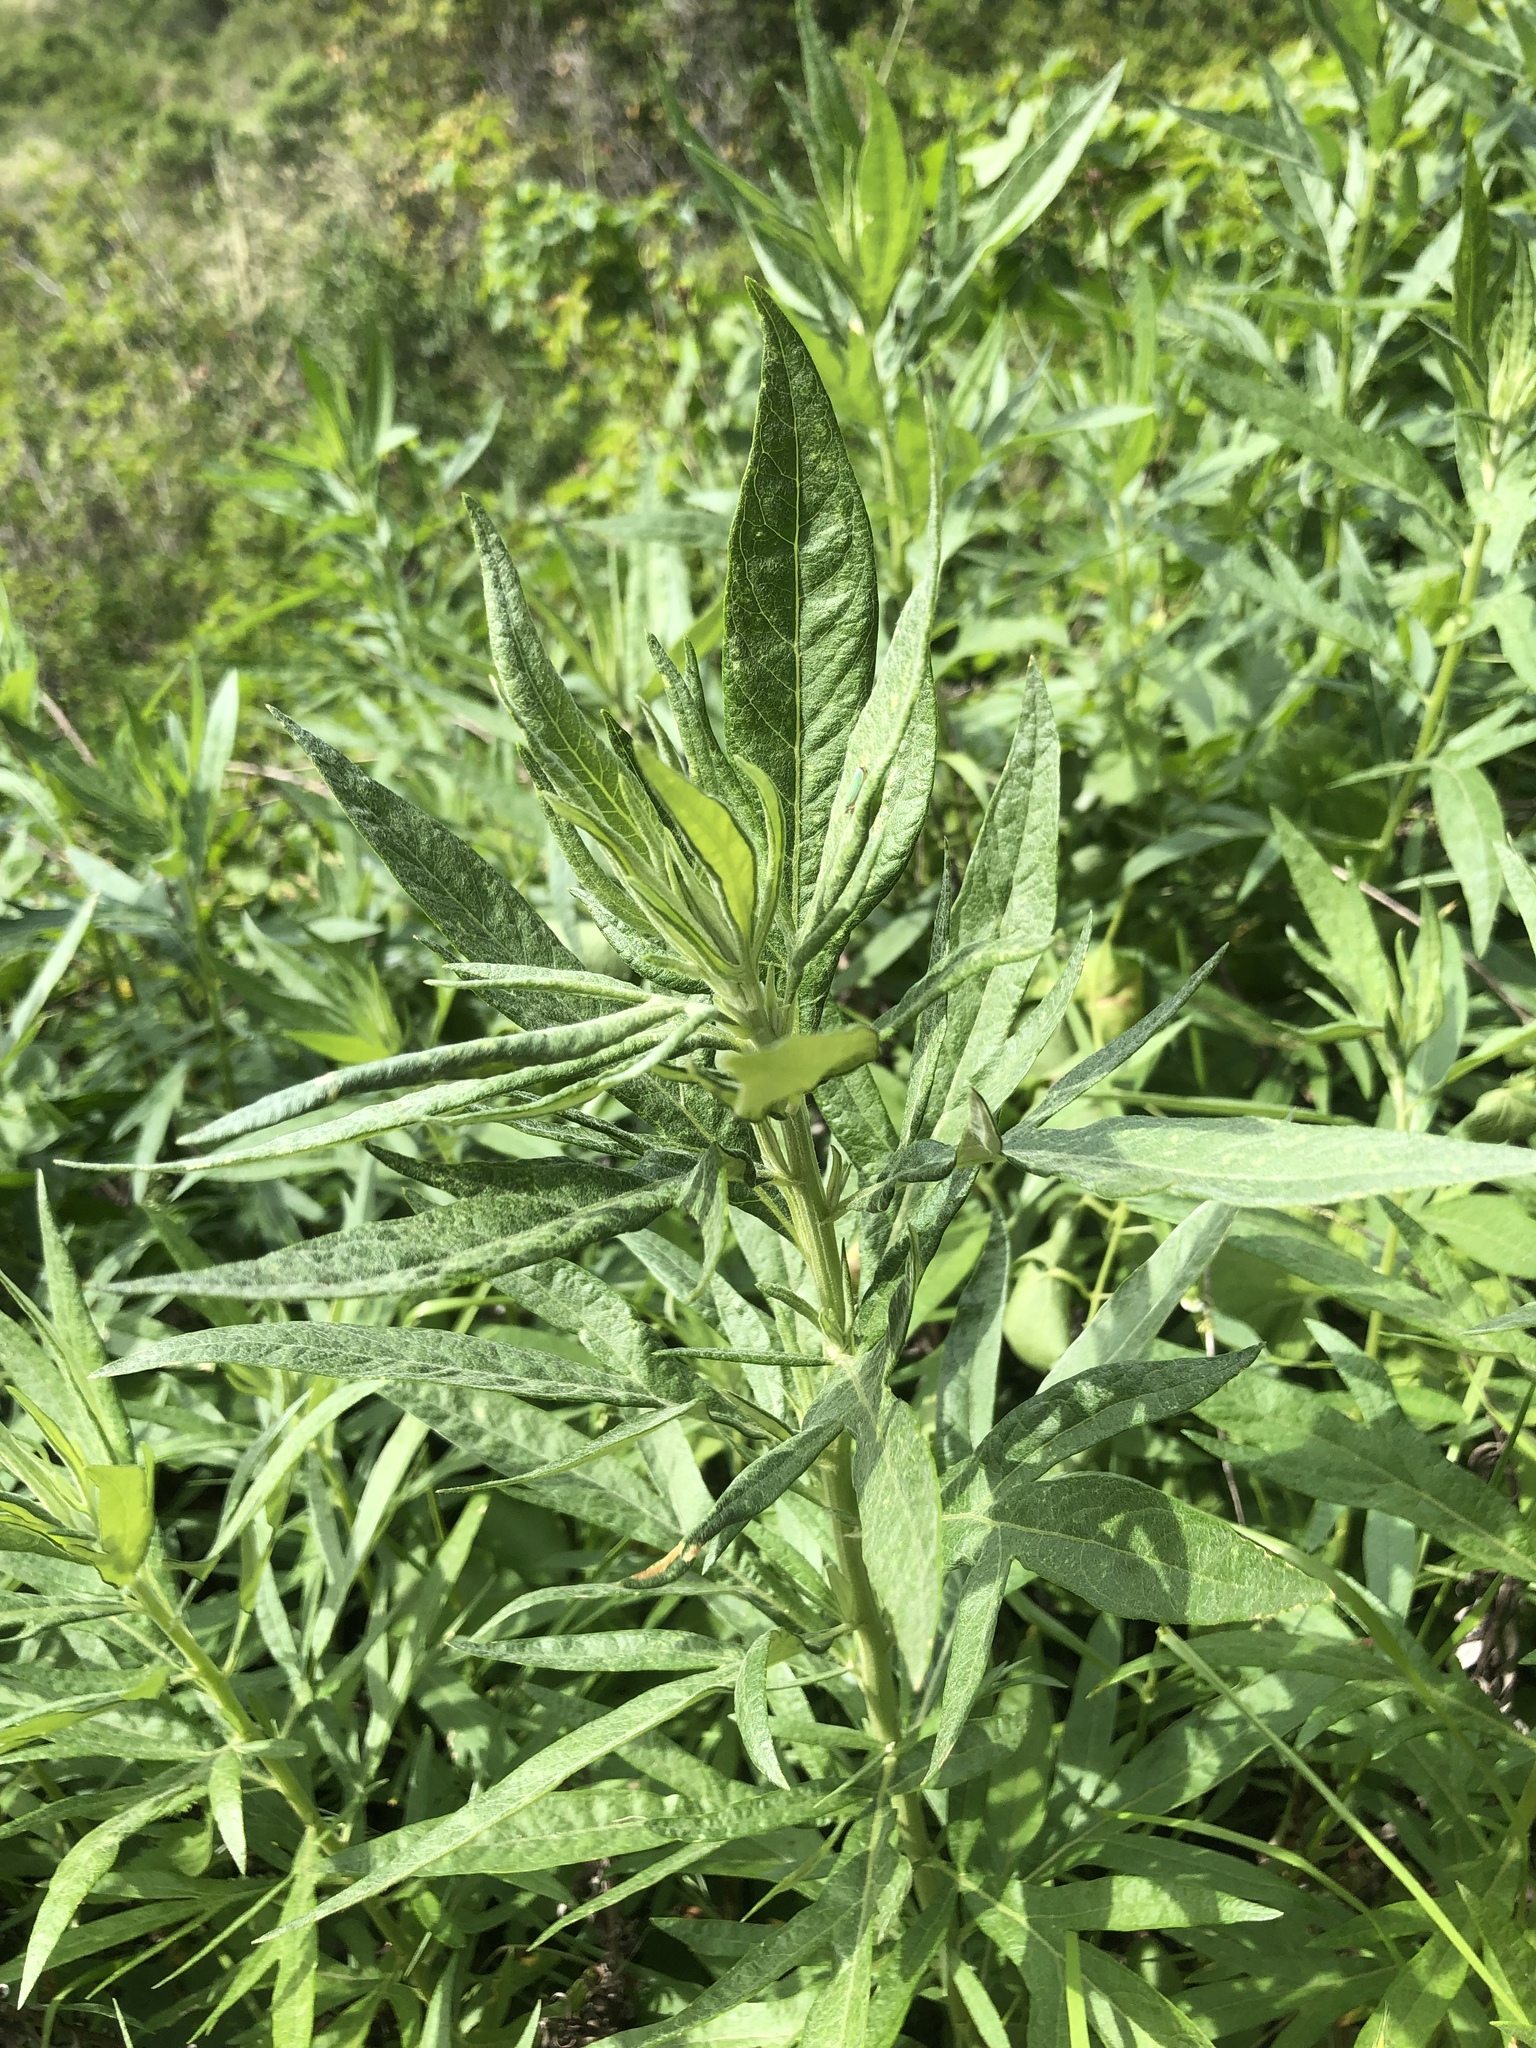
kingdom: Plantae
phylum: Tracheophyta
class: Magnoliopsida
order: Asterales
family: Asteraceae
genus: Artemisia
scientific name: Artemisia douglasiana
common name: Northwest mugwort
